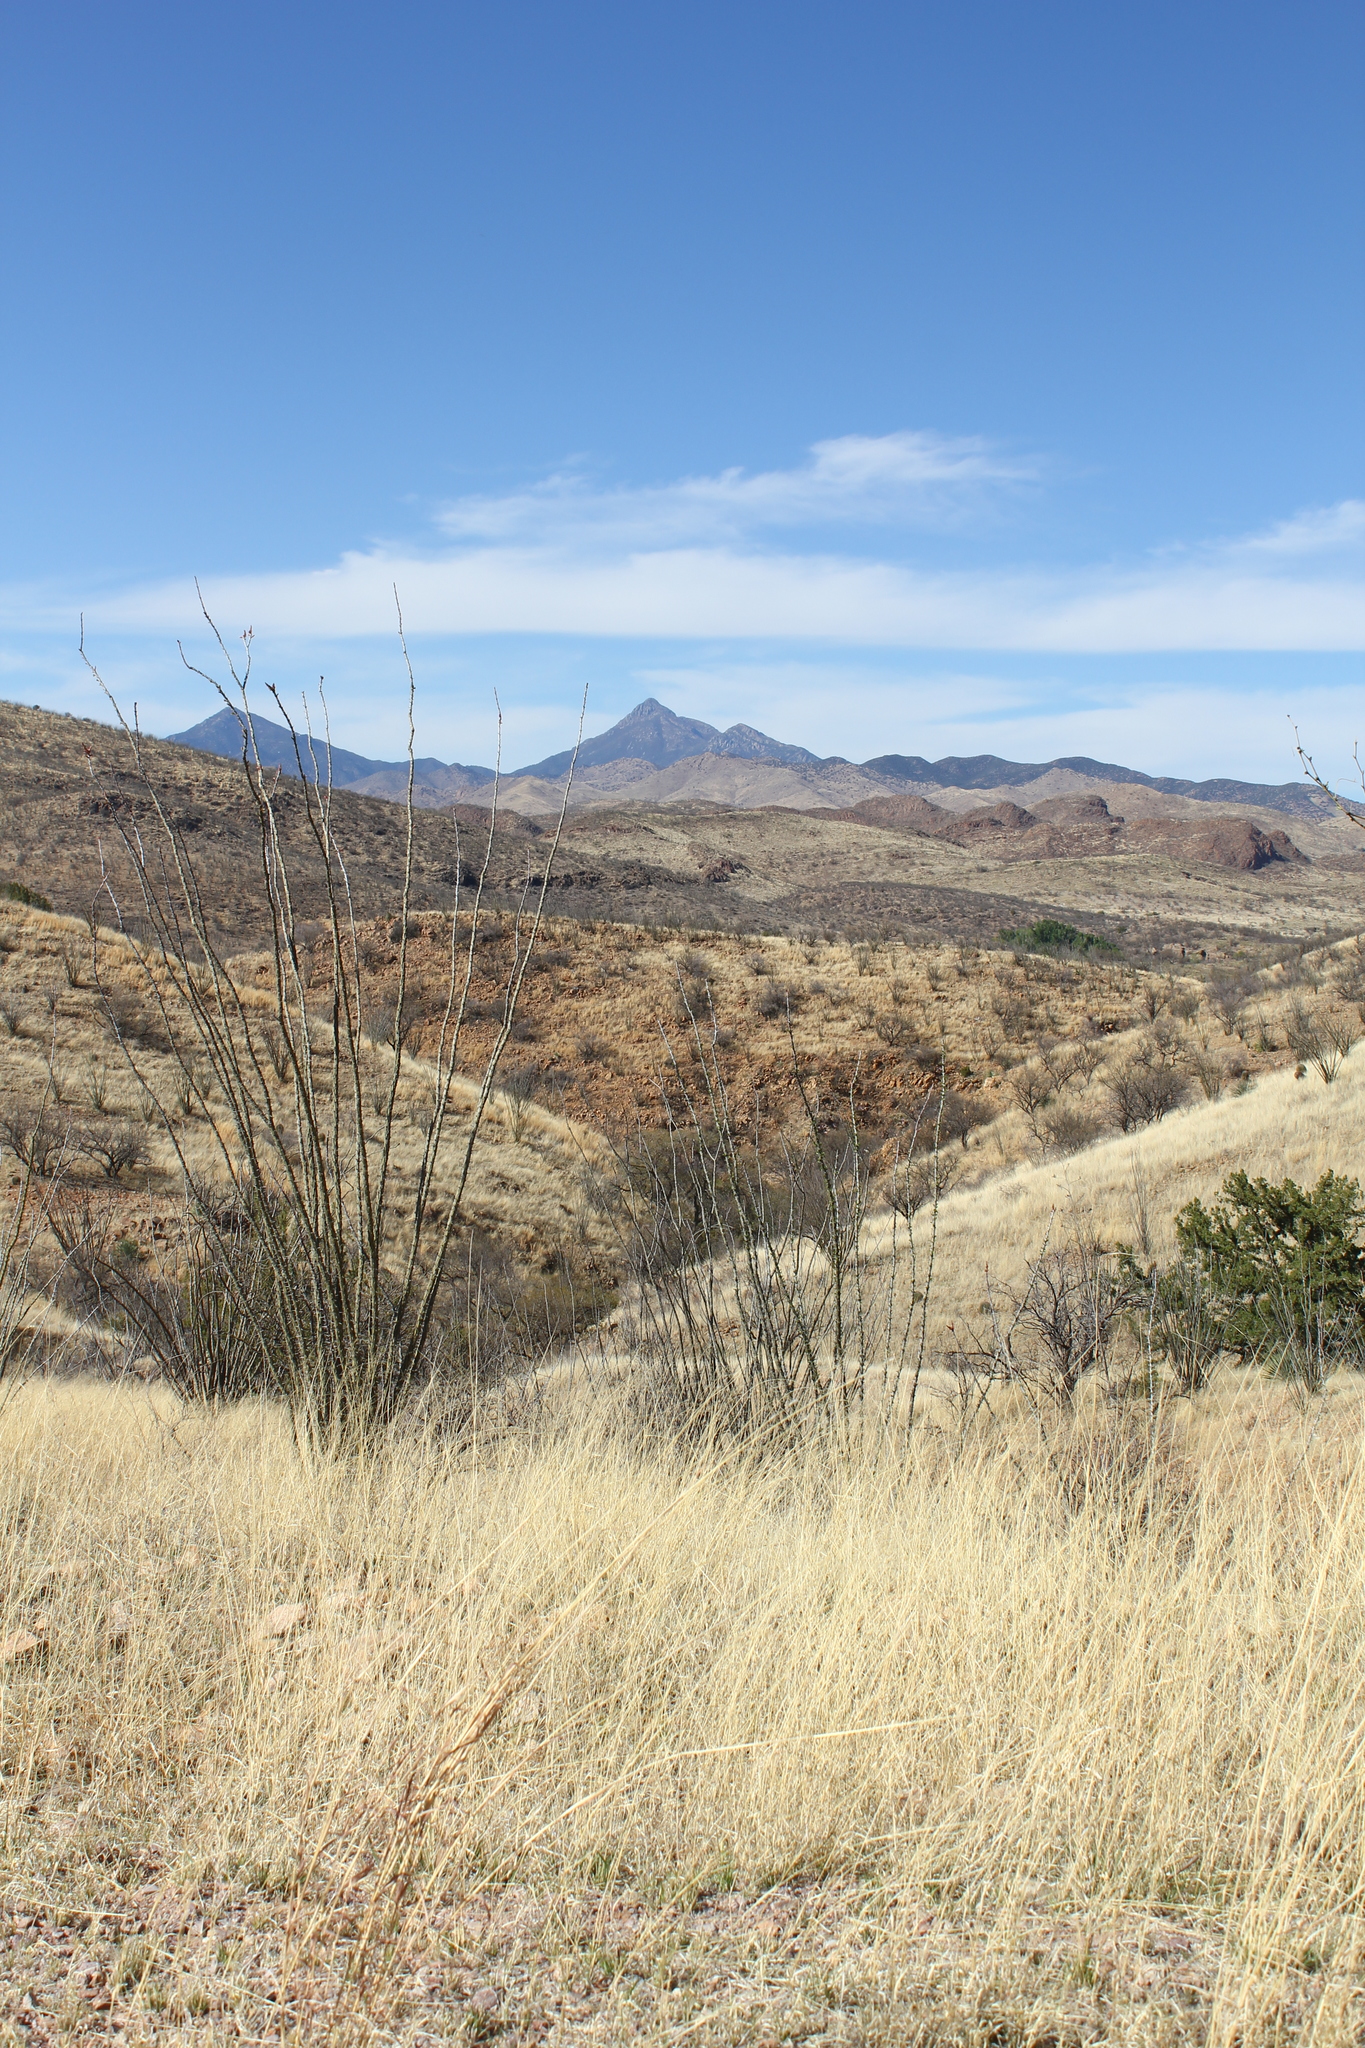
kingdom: Plantae
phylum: Tracheophyta
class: Magnoliopsida
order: Ericales
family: Fouquieriaceae
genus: Fouquieria
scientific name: Fouquieria splendens
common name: Vine-cactus
